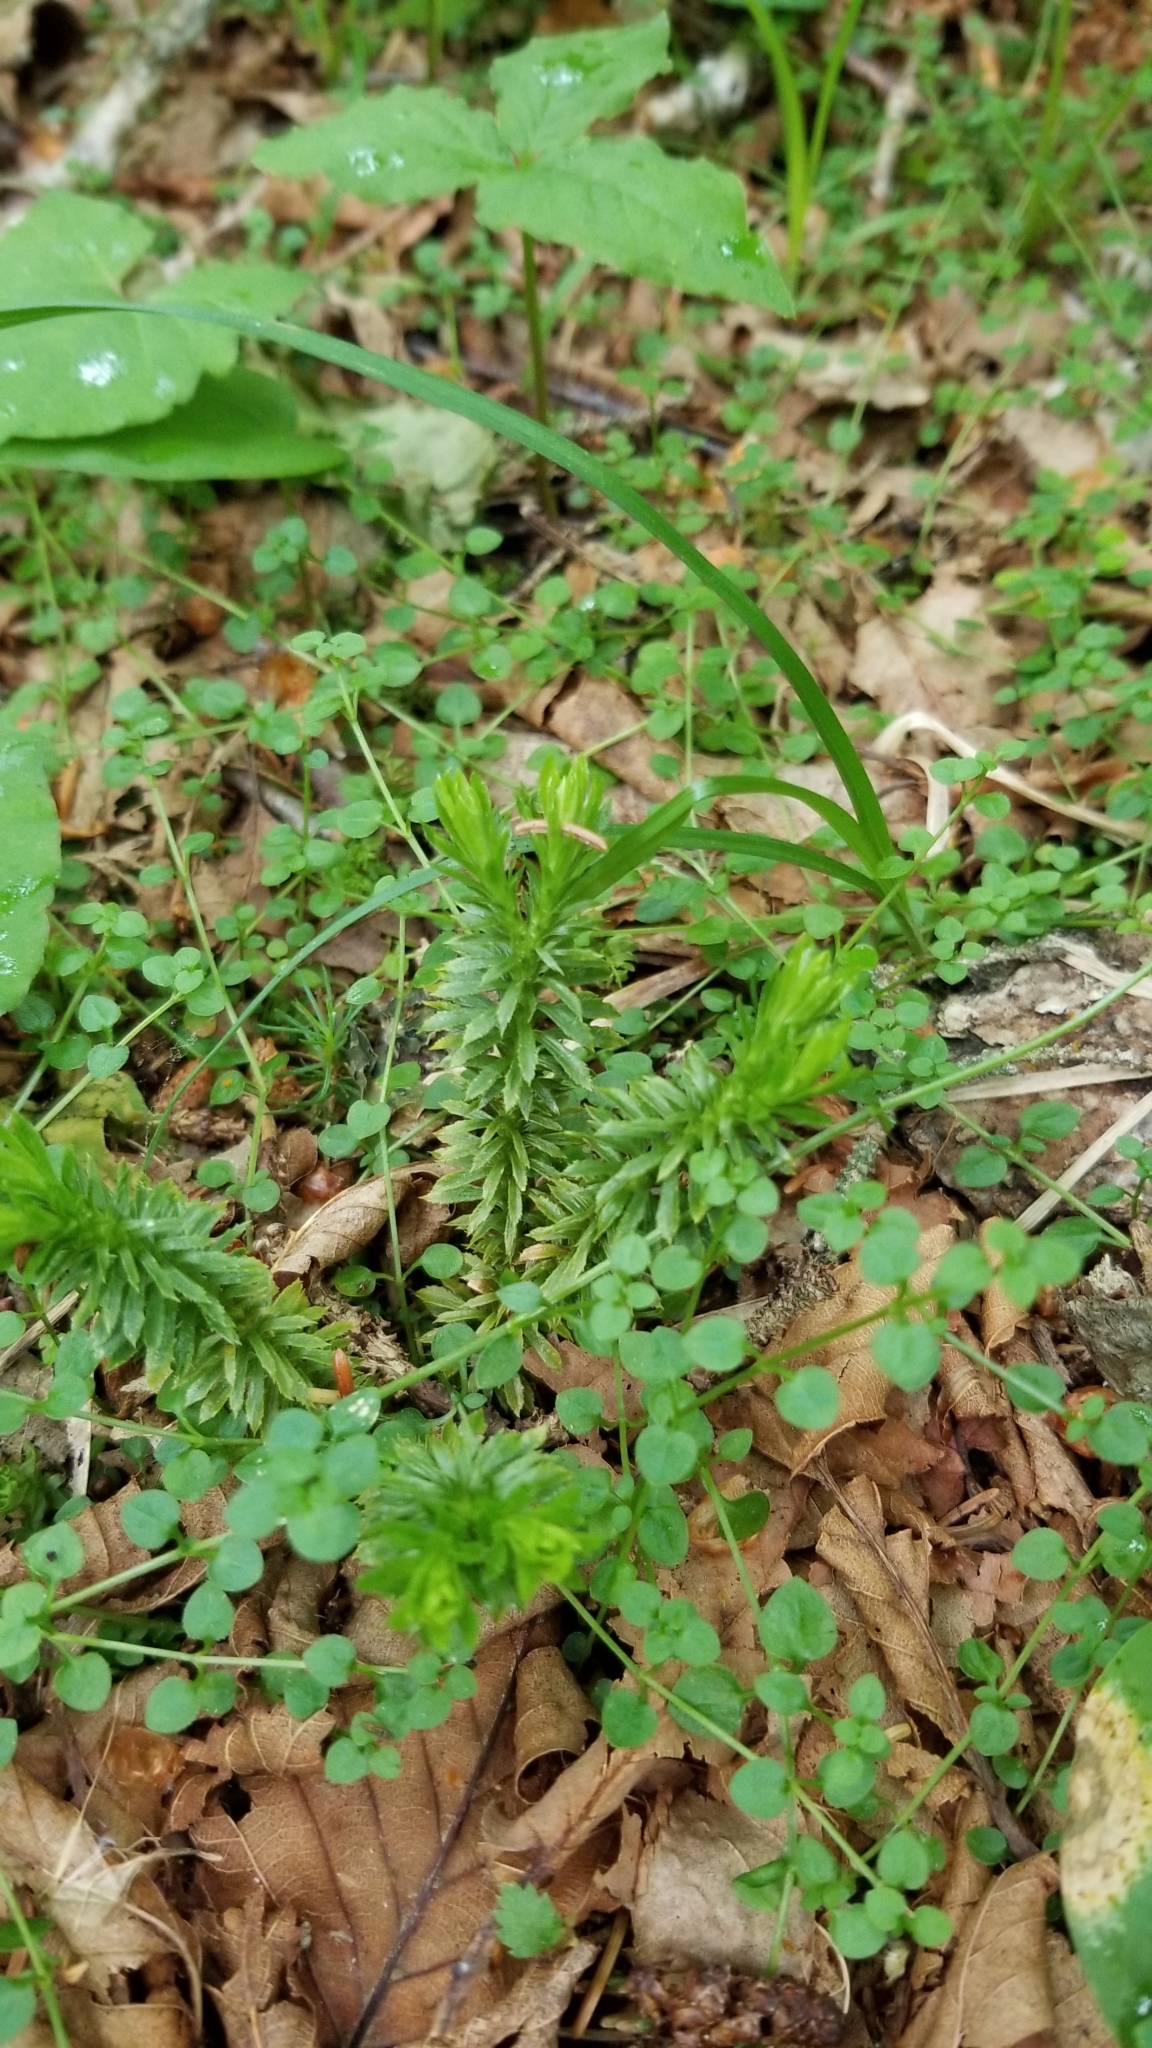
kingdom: Plantae
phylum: Tracheophyta
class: Lycopodiopsida
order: Lycopodiales
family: Lycopodiaceae
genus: Huperzia
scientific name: Huperzia lucidula
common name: Shining clubmoss
